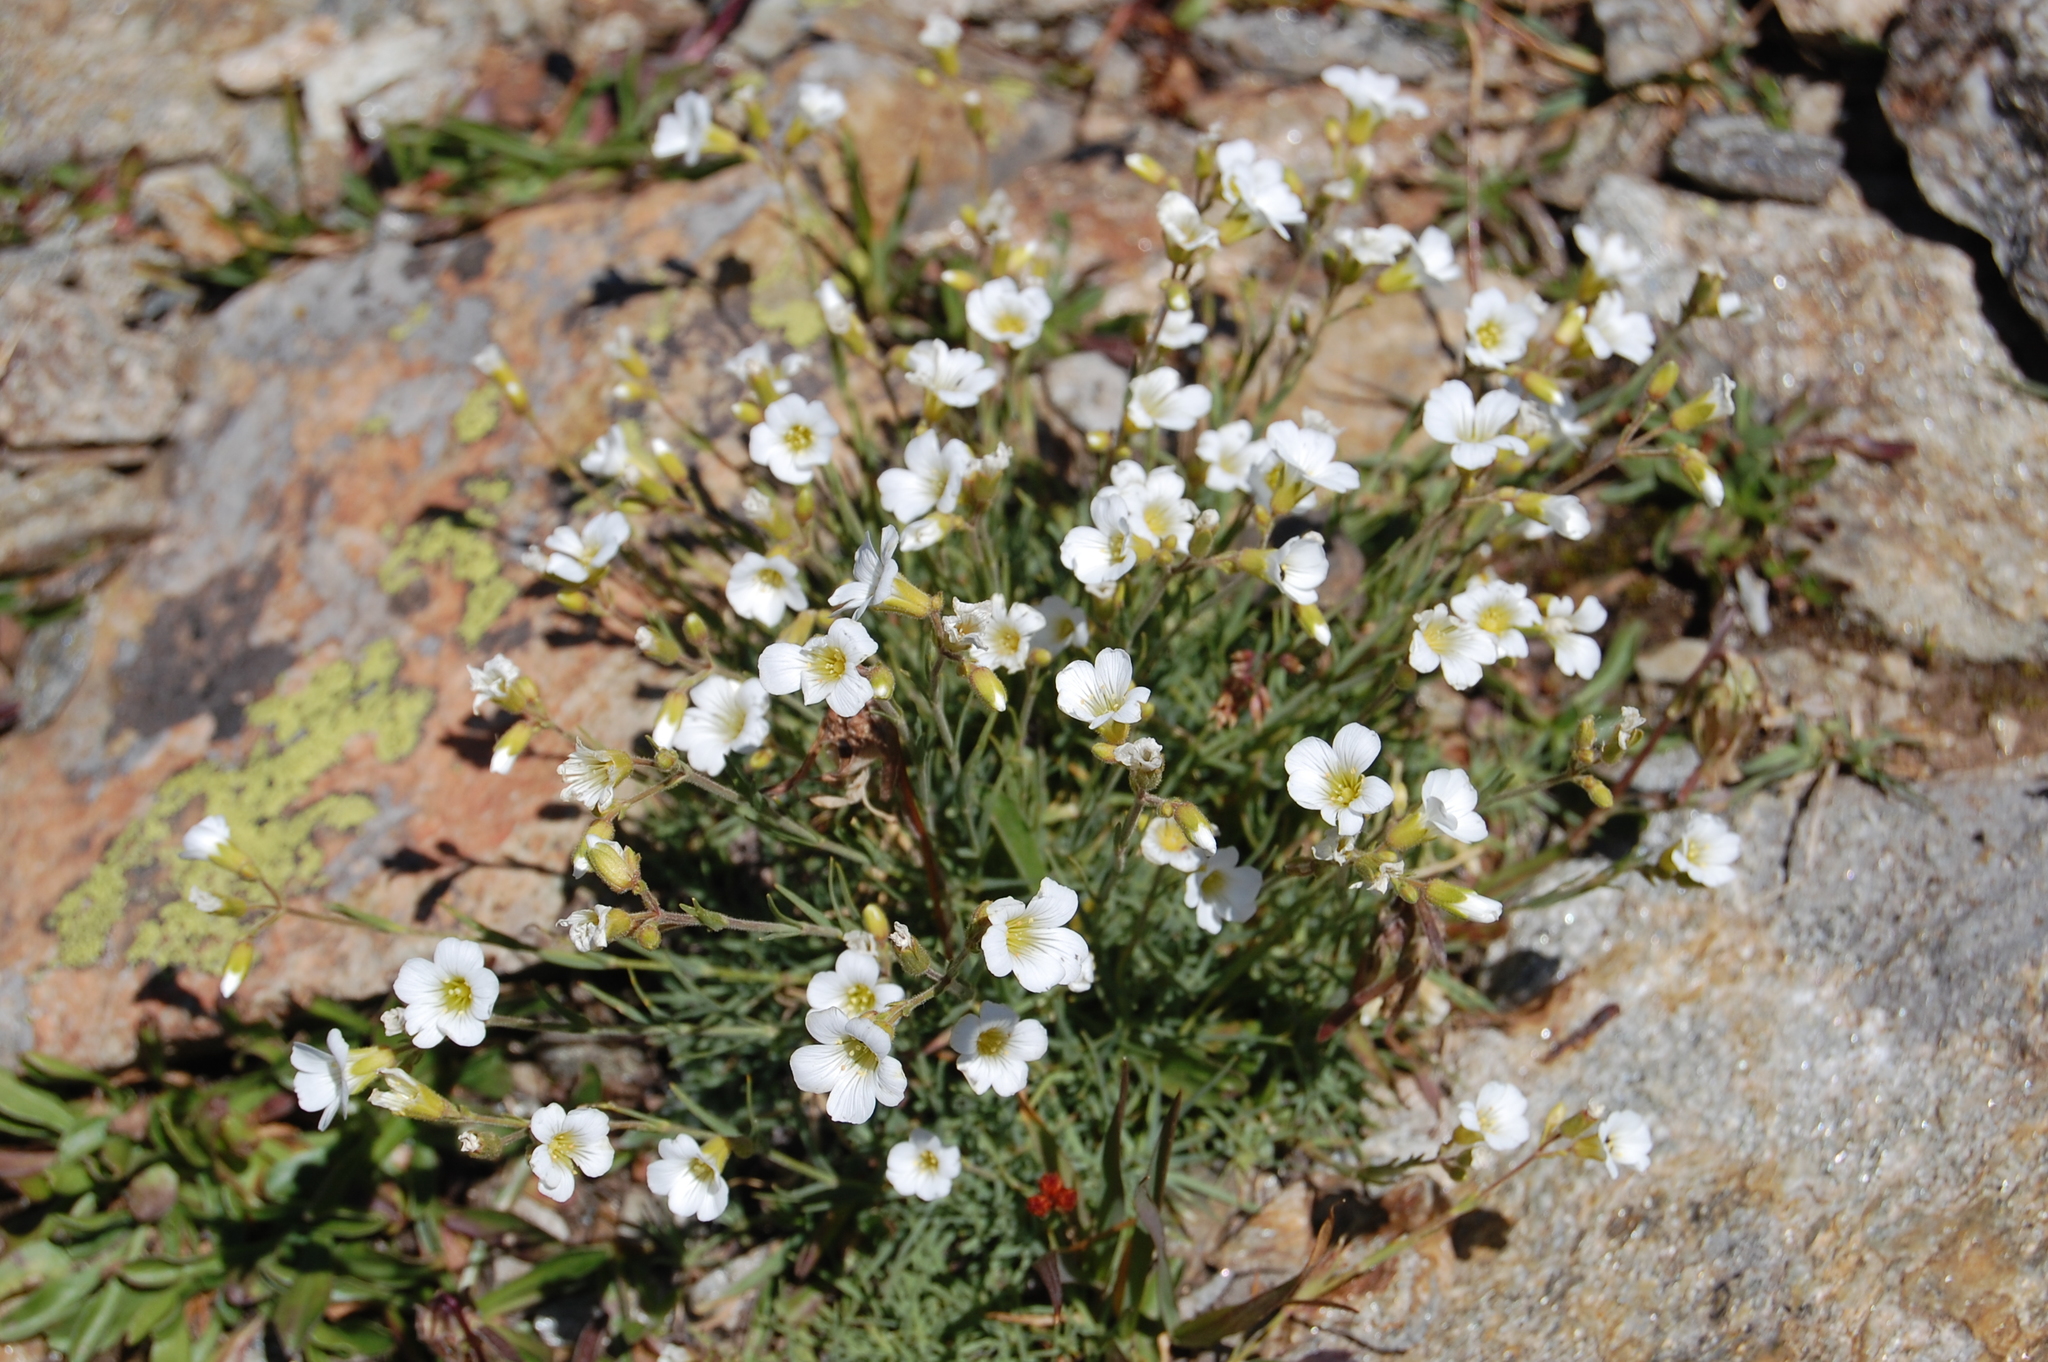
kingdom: Plantae
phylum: Tracheophyta
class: Magnoliopsida
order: Caryophyllales
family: Caryophyllaceae
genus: Cherleria
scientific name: Cherleria circassica
